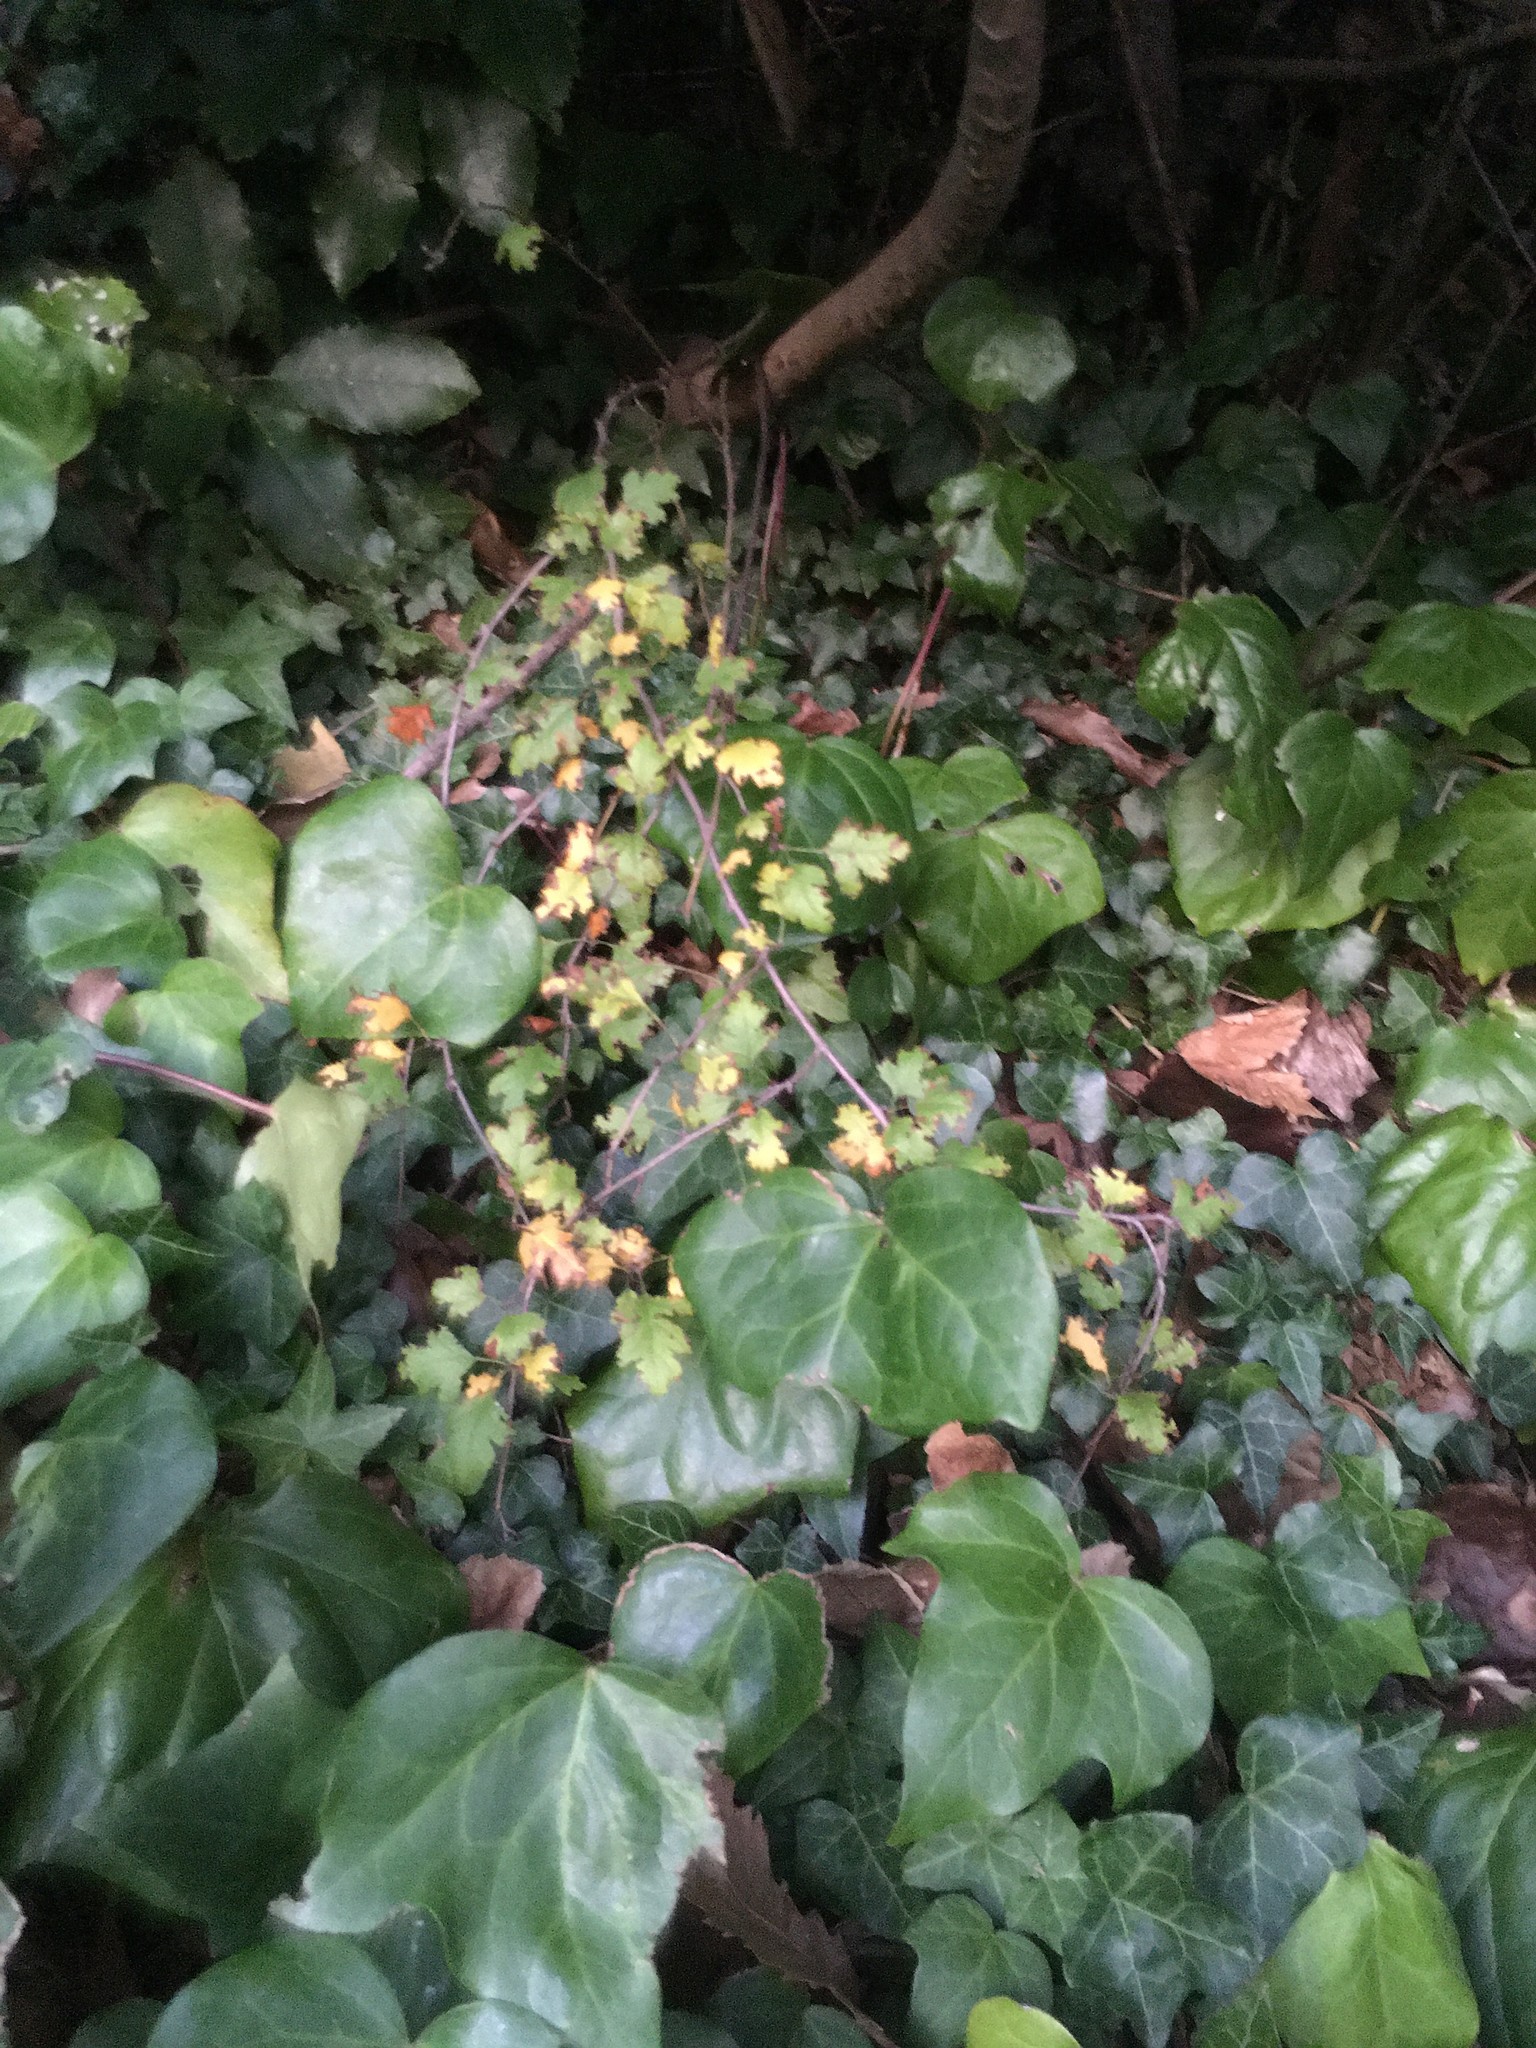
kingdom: Plantae
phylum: Tracheophyta
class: Magnoliopsida
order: Rosales
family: Rosaceae
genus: Crataegus
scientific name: Crataegus monogyna
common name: Hawthorn
